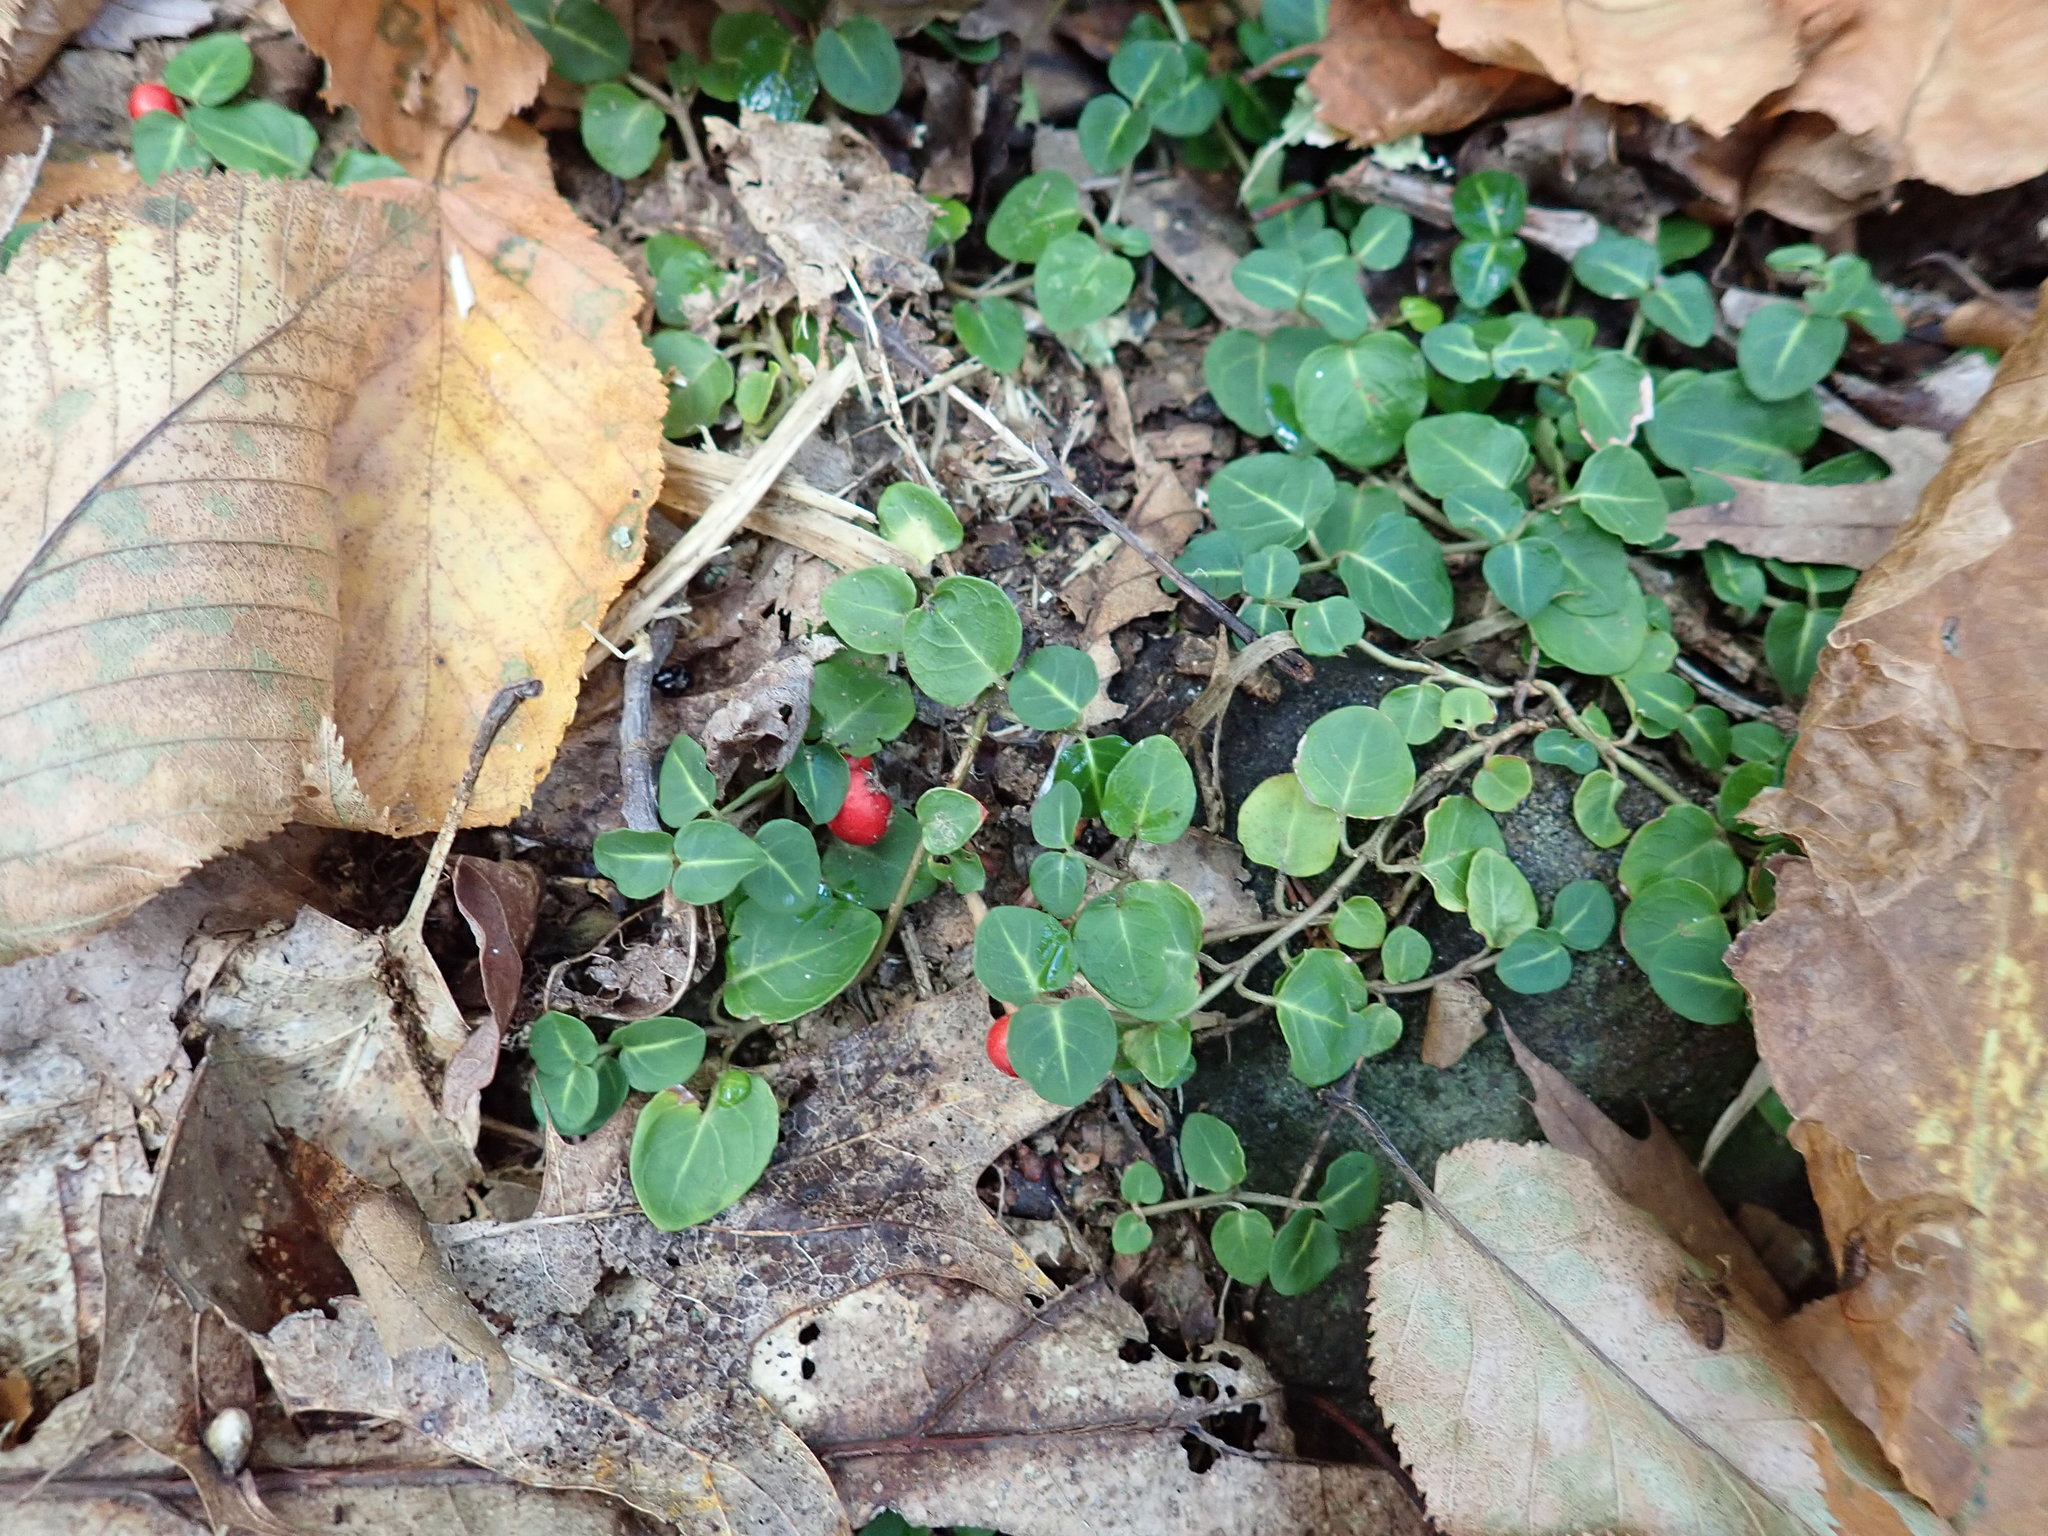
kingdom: Plantae
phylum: Tracheophyta
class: Magnoliopsida
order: Gentianales
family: Rubiaceae
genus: Mitchella
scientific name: Mitchella repens
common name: Partridge-berry
